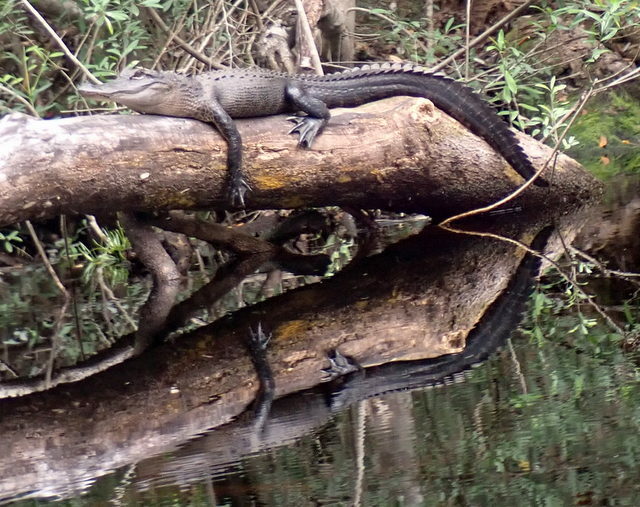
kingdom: Animalia
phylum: Chordata
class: Crocodylia
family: Alligatoridae
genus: Alligator
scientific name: Alligator mississippiensis
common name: American alligator
